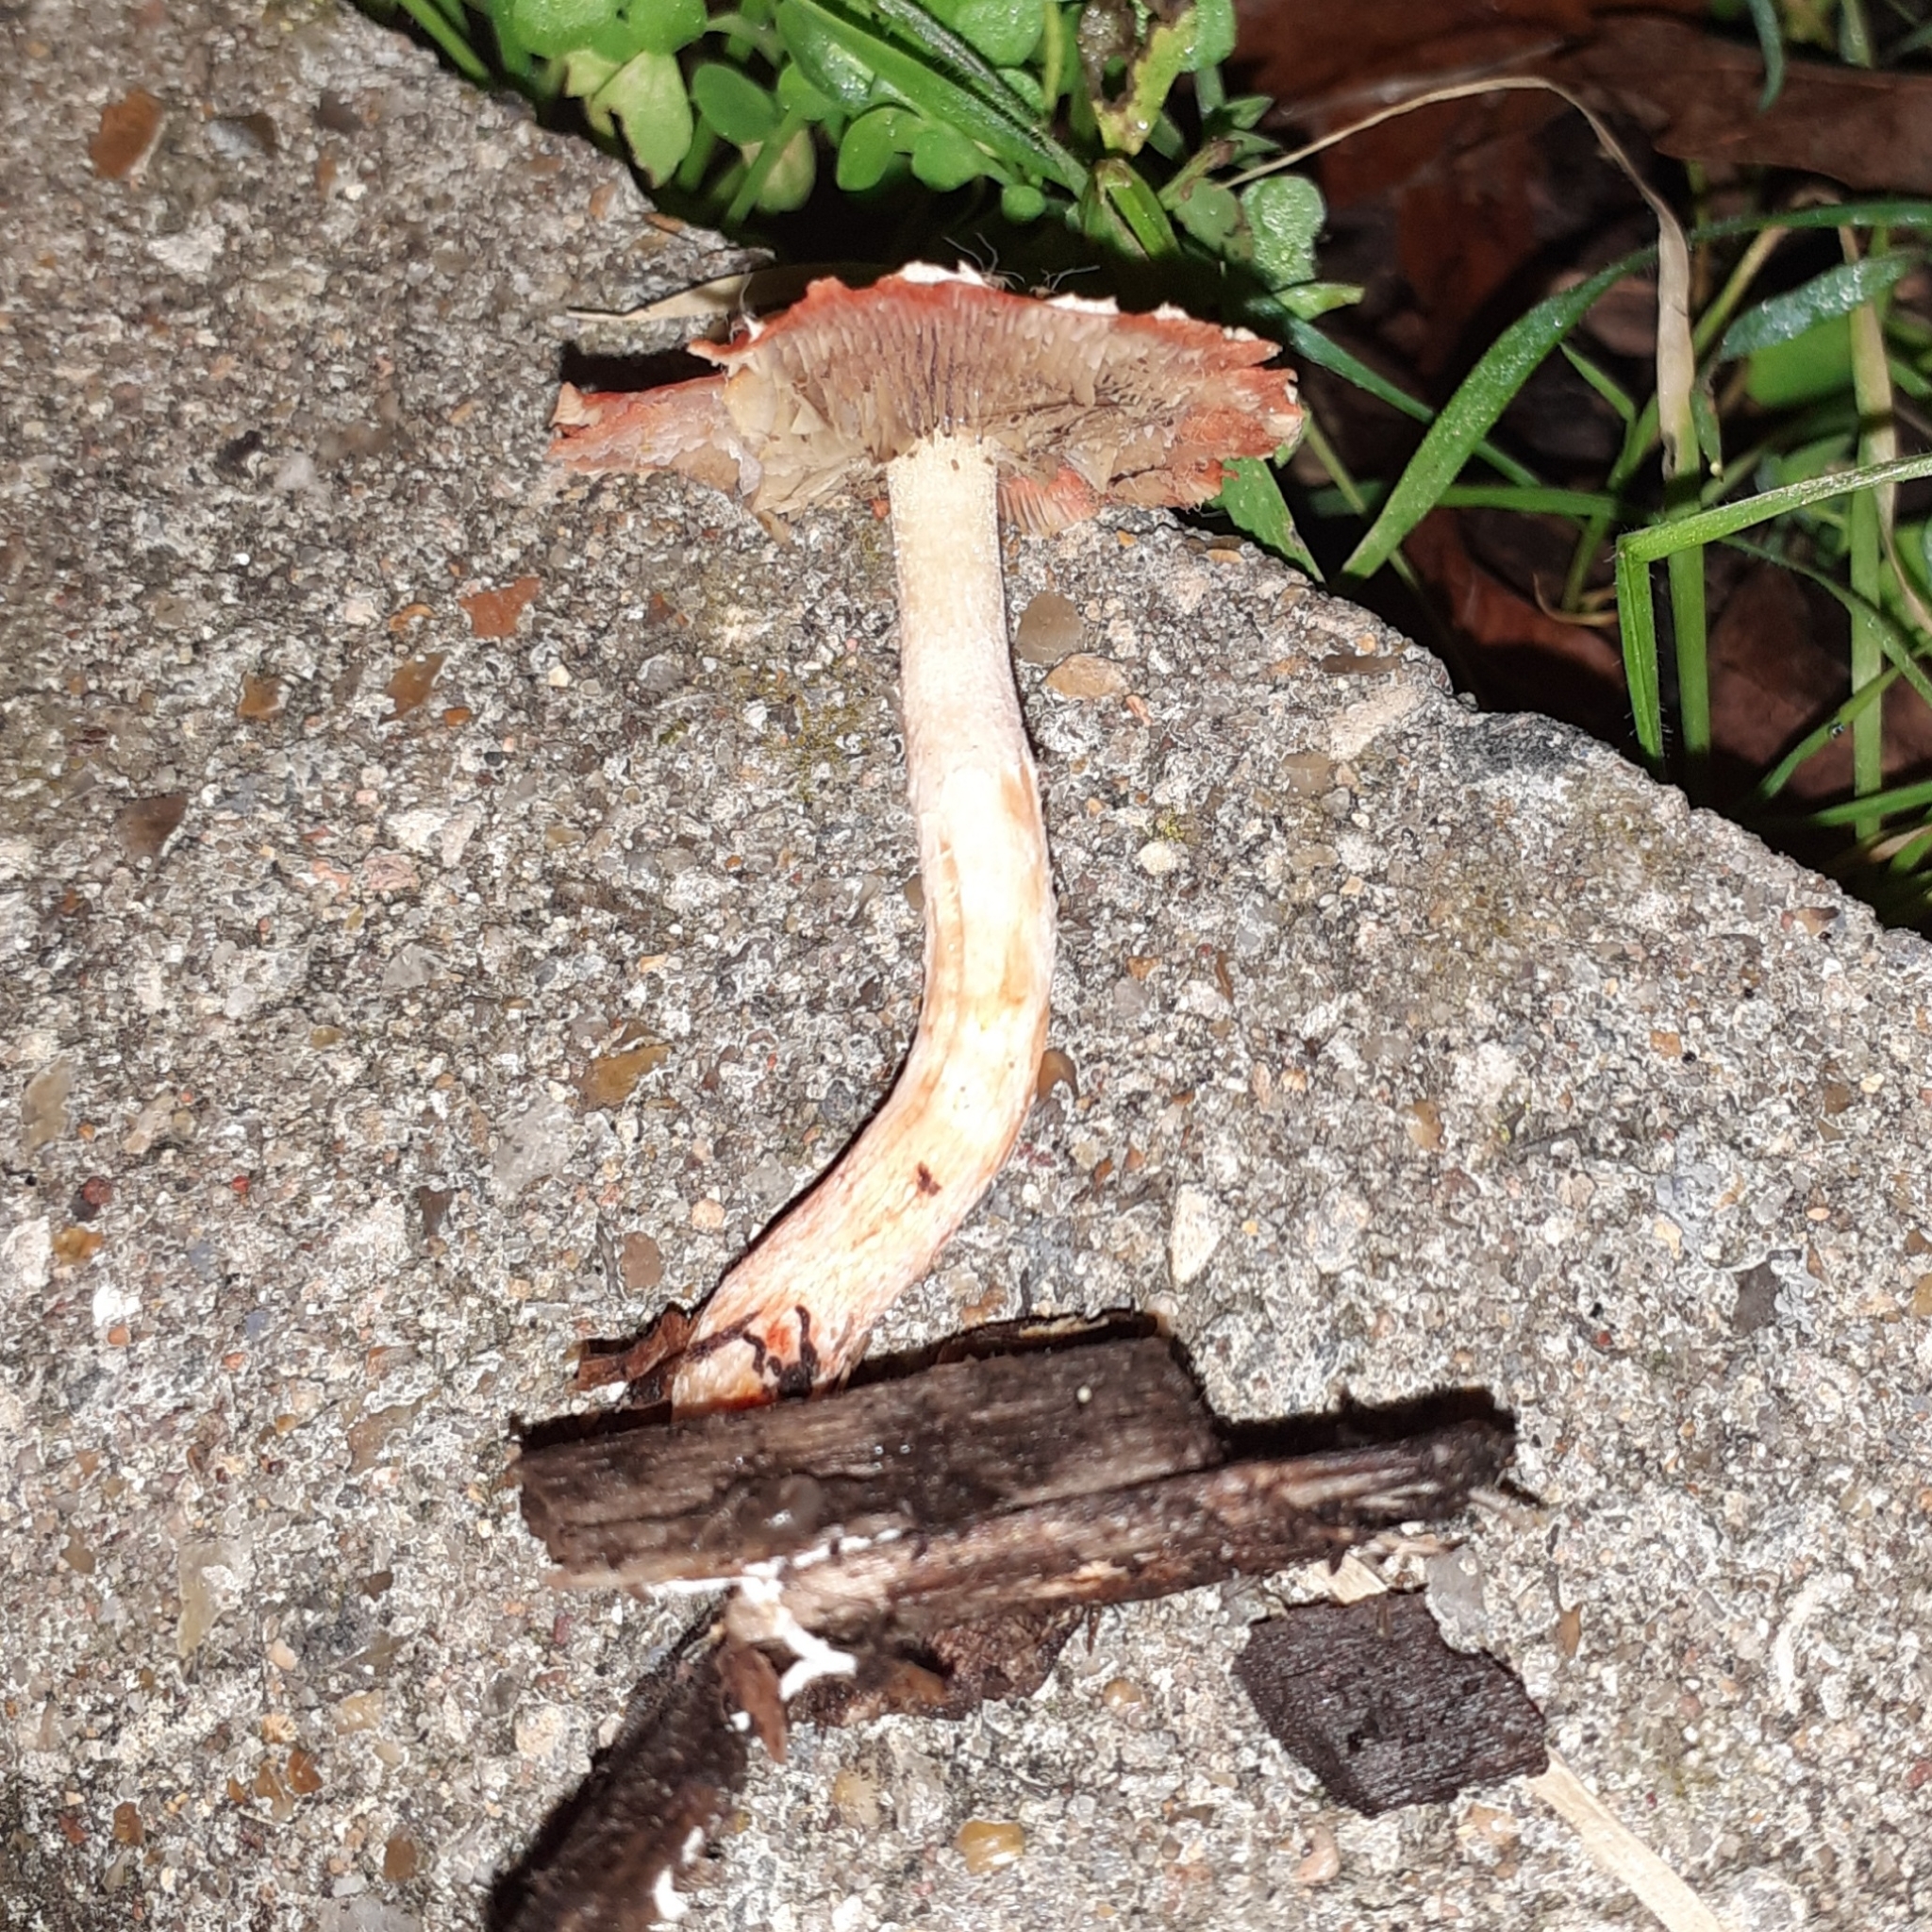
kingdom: Fungi
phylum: Basidiomycota
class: Agaricomycetes
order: Agaricales
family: Strophariaceae
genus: Leratiomyces
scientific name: Leratiomyces ceres
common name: Redlead roundhead
